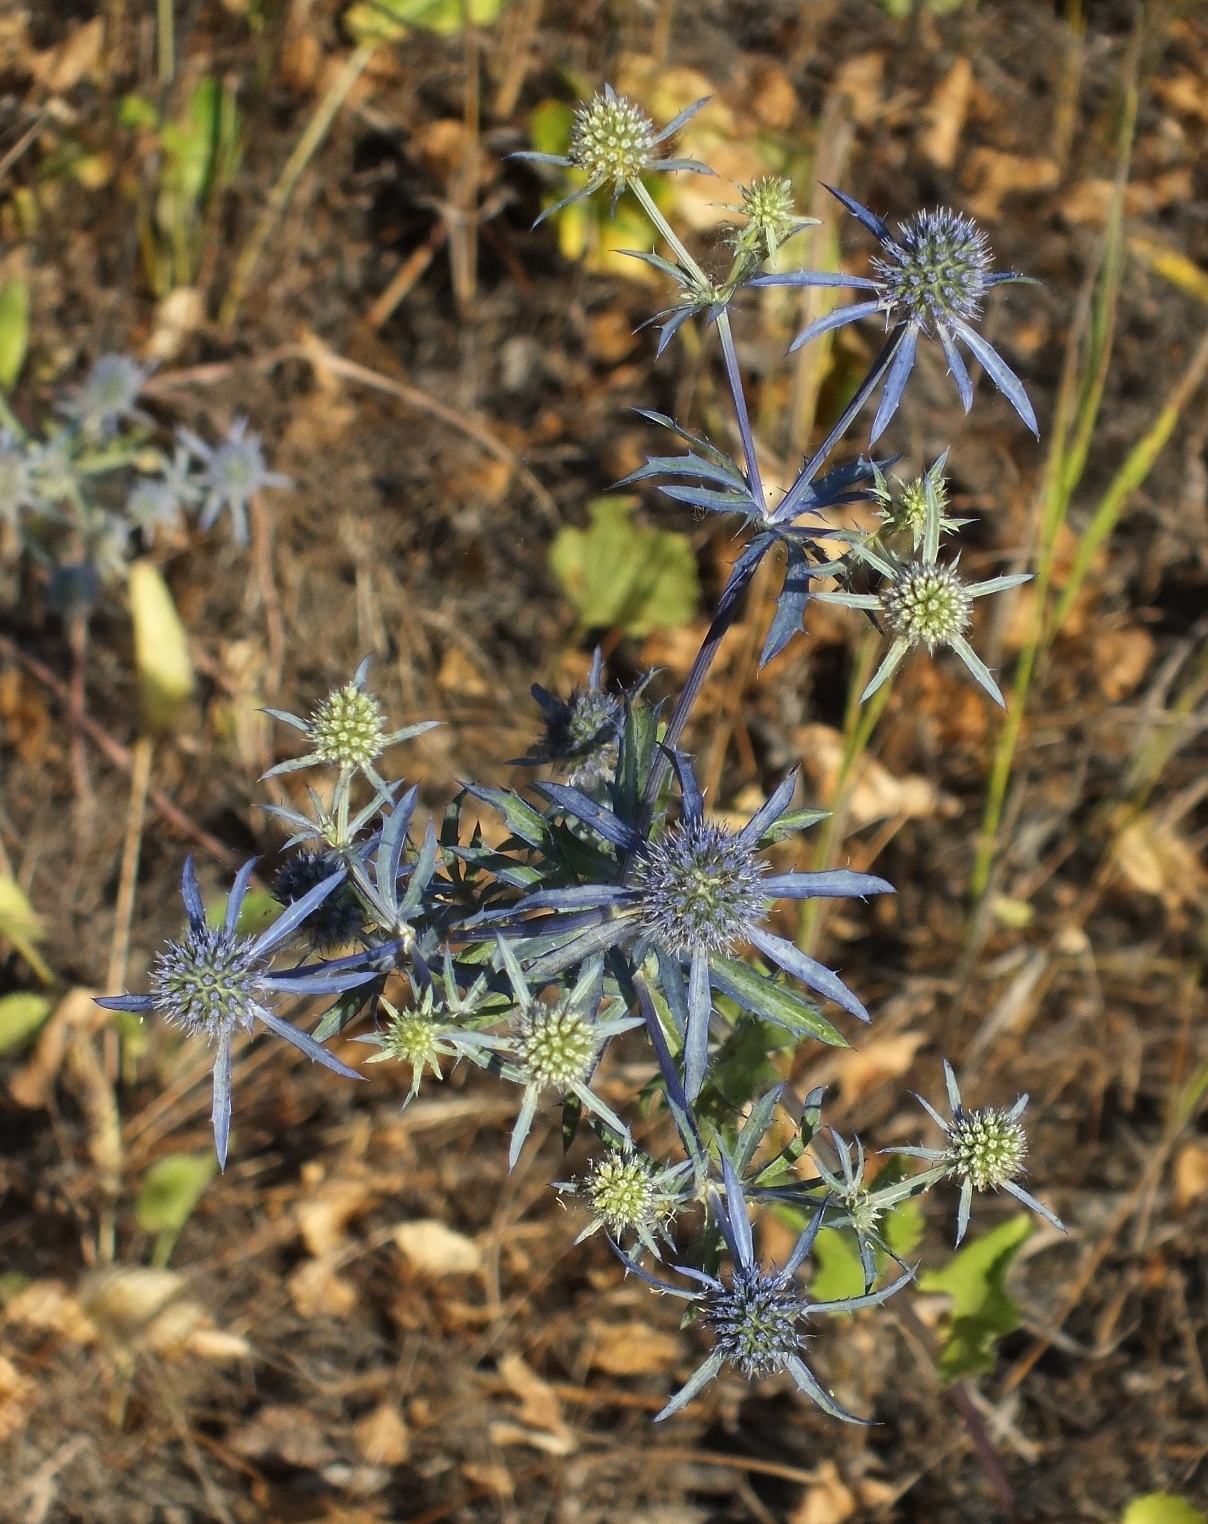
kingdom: Plantae
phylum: Tracheophyta
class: Magnoliopsida
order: Apiales
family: Apiaceae
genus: Eryngium
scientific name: Eryngium planum
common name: Blue eryngo
